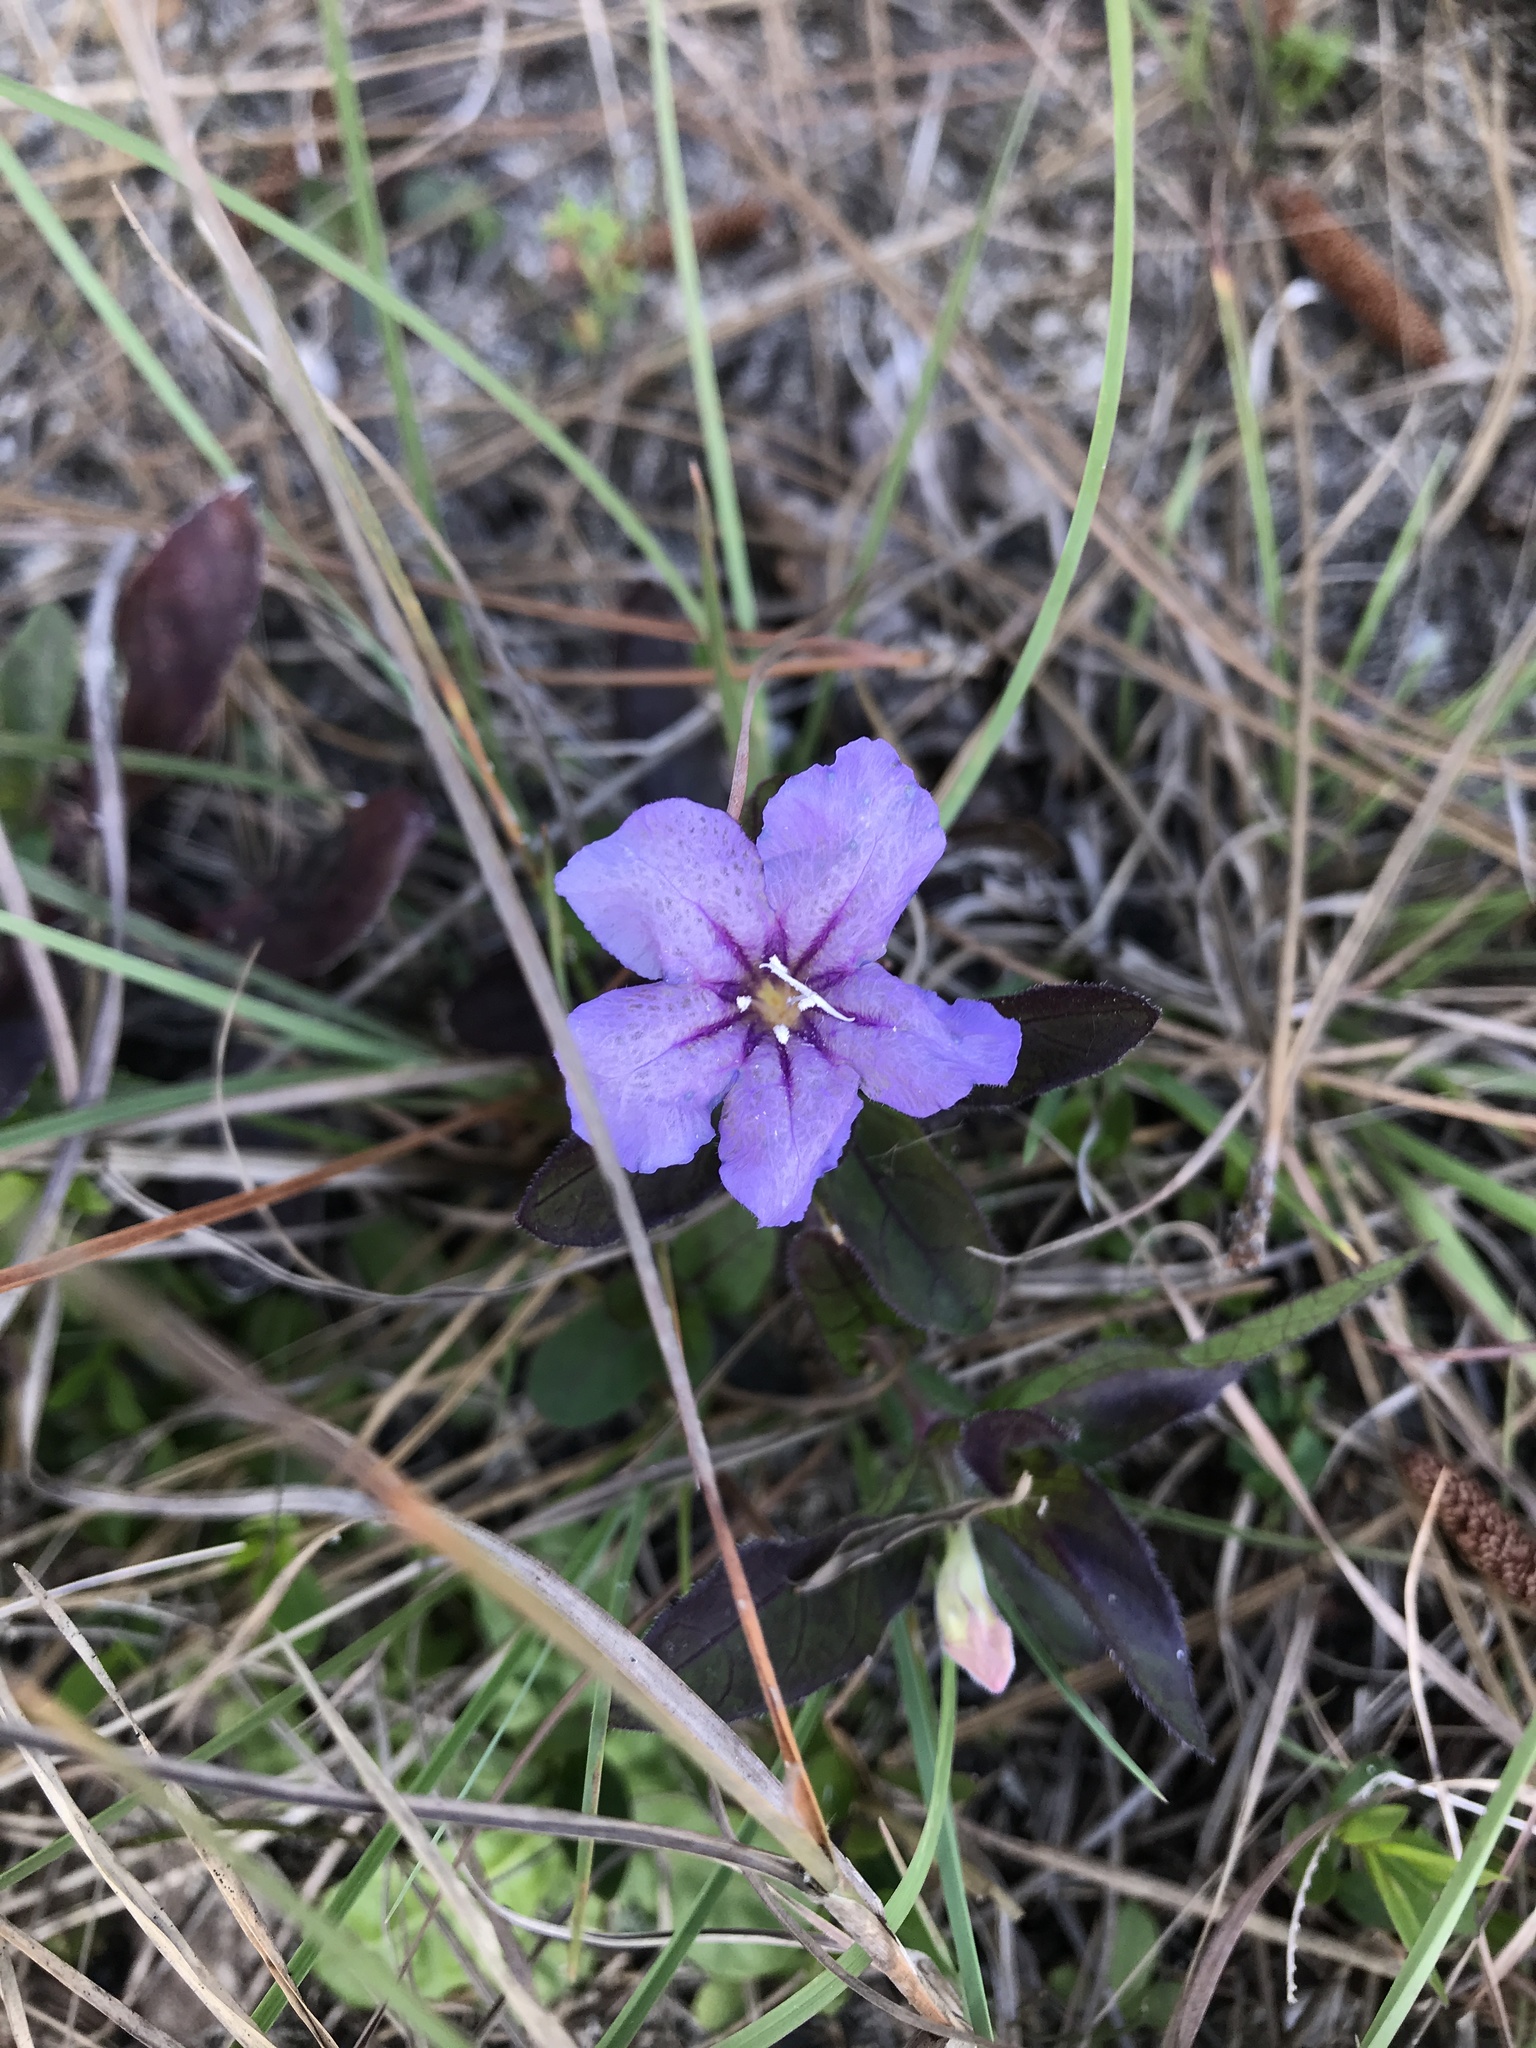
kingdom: Plantae
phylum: Tracheophyta
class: Magnoliopsida
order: Lamiales
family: Acanthaceae
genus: Ruellia
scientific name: Ruellia caroliniensis
